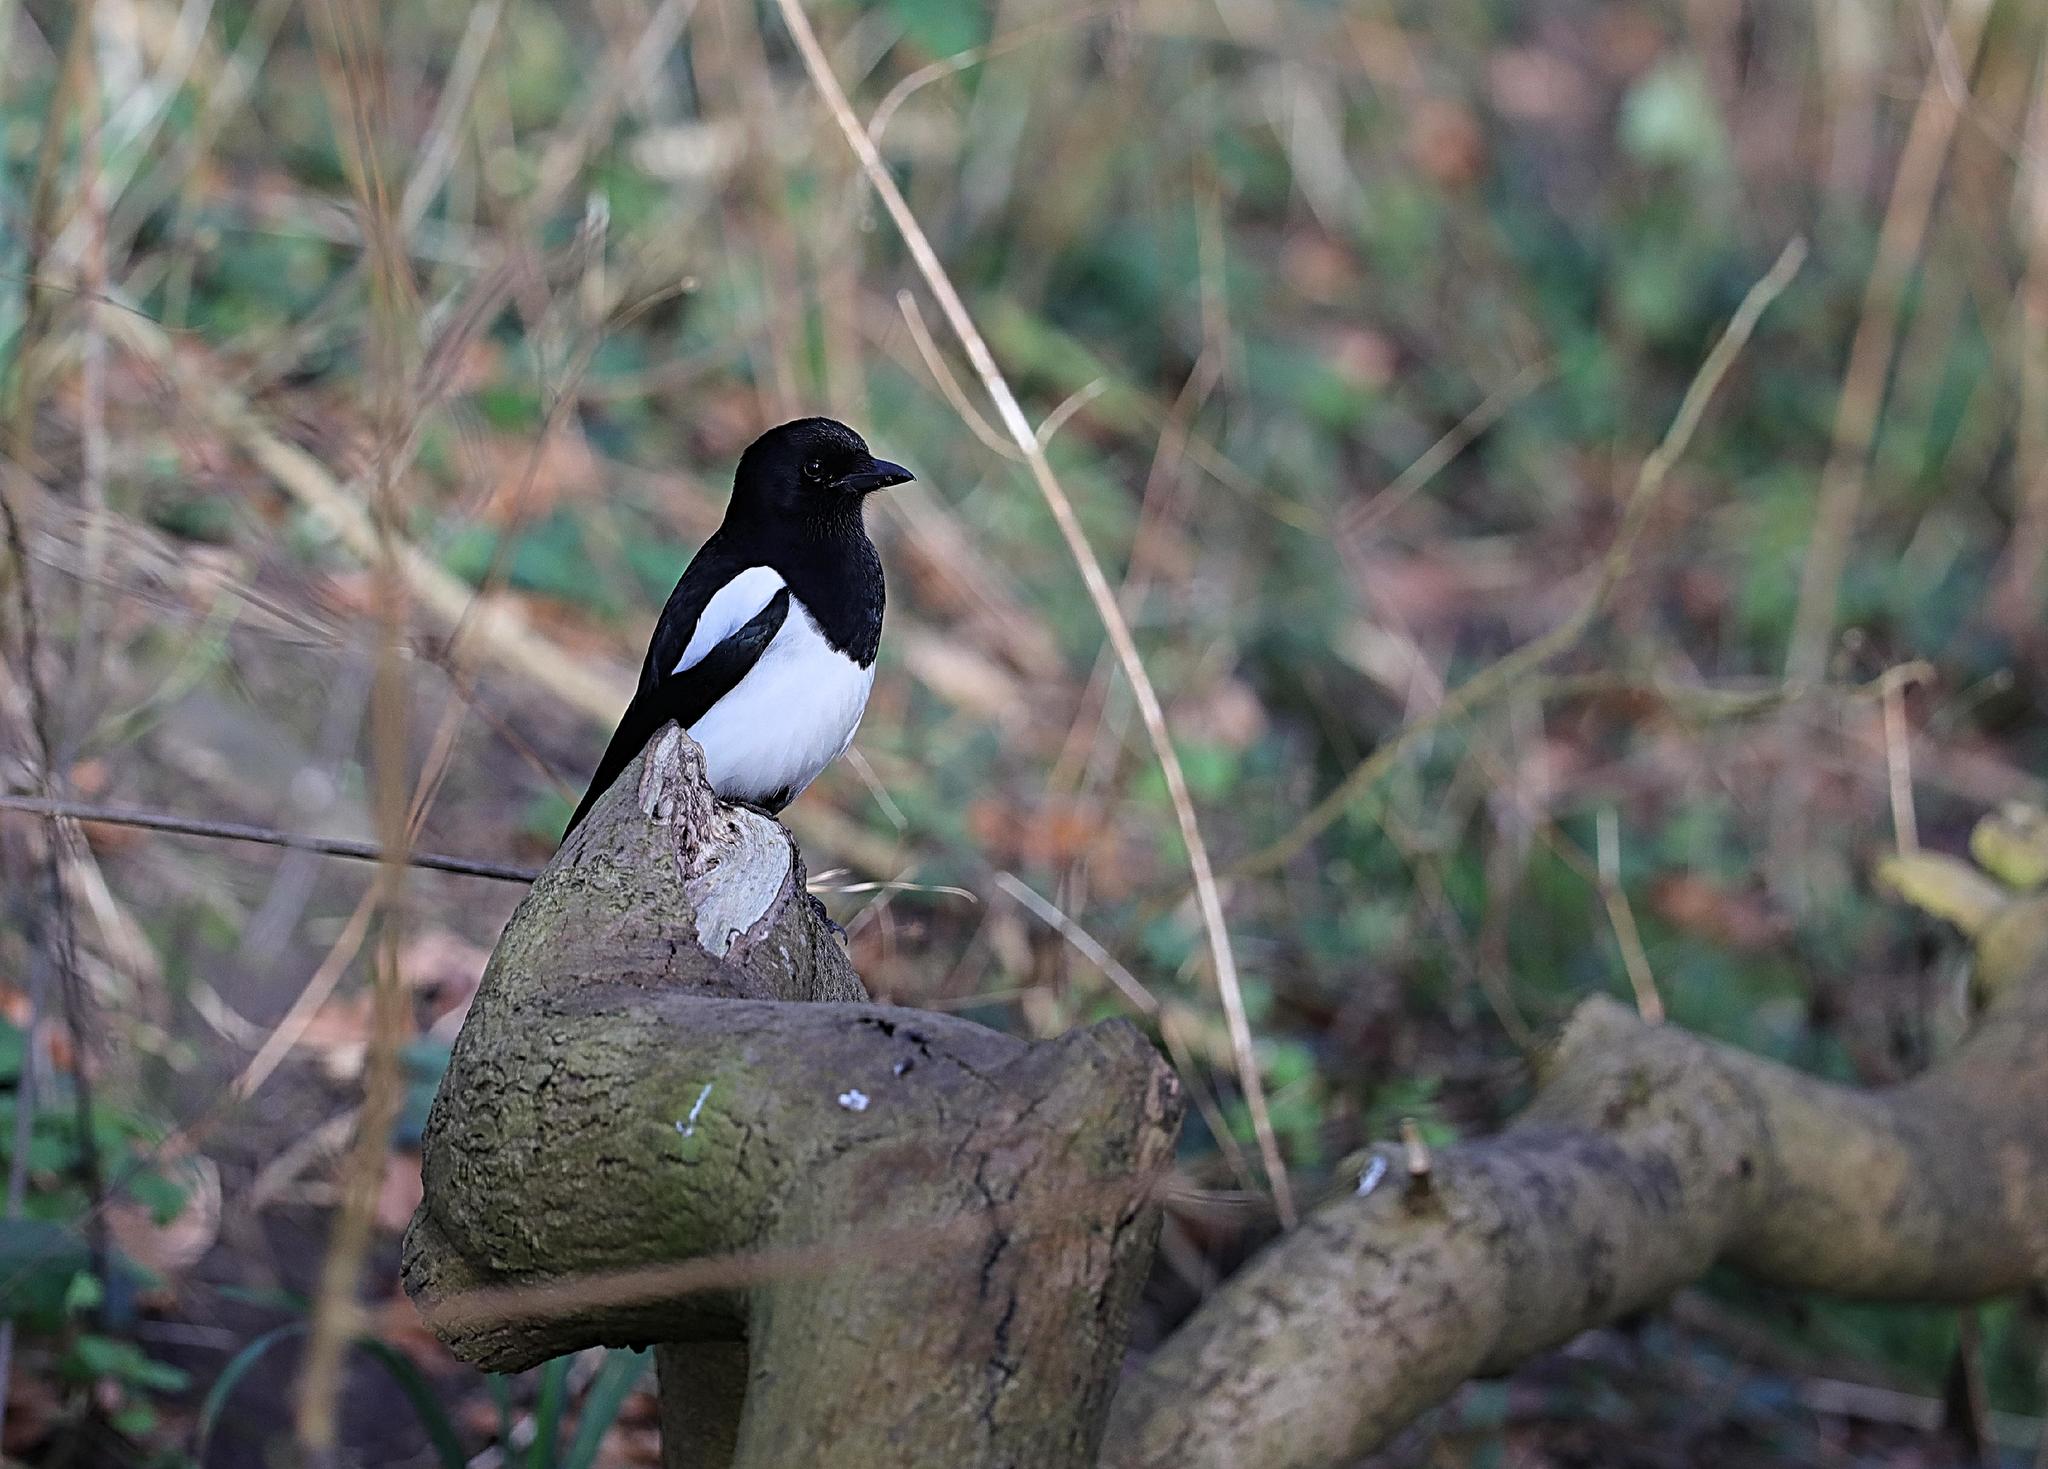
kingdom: Animalia
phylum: Chordata
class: Aves
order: Passeriformes
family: Corvidae
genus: Pica
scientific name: Pica pica
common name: Eurasian magpie
